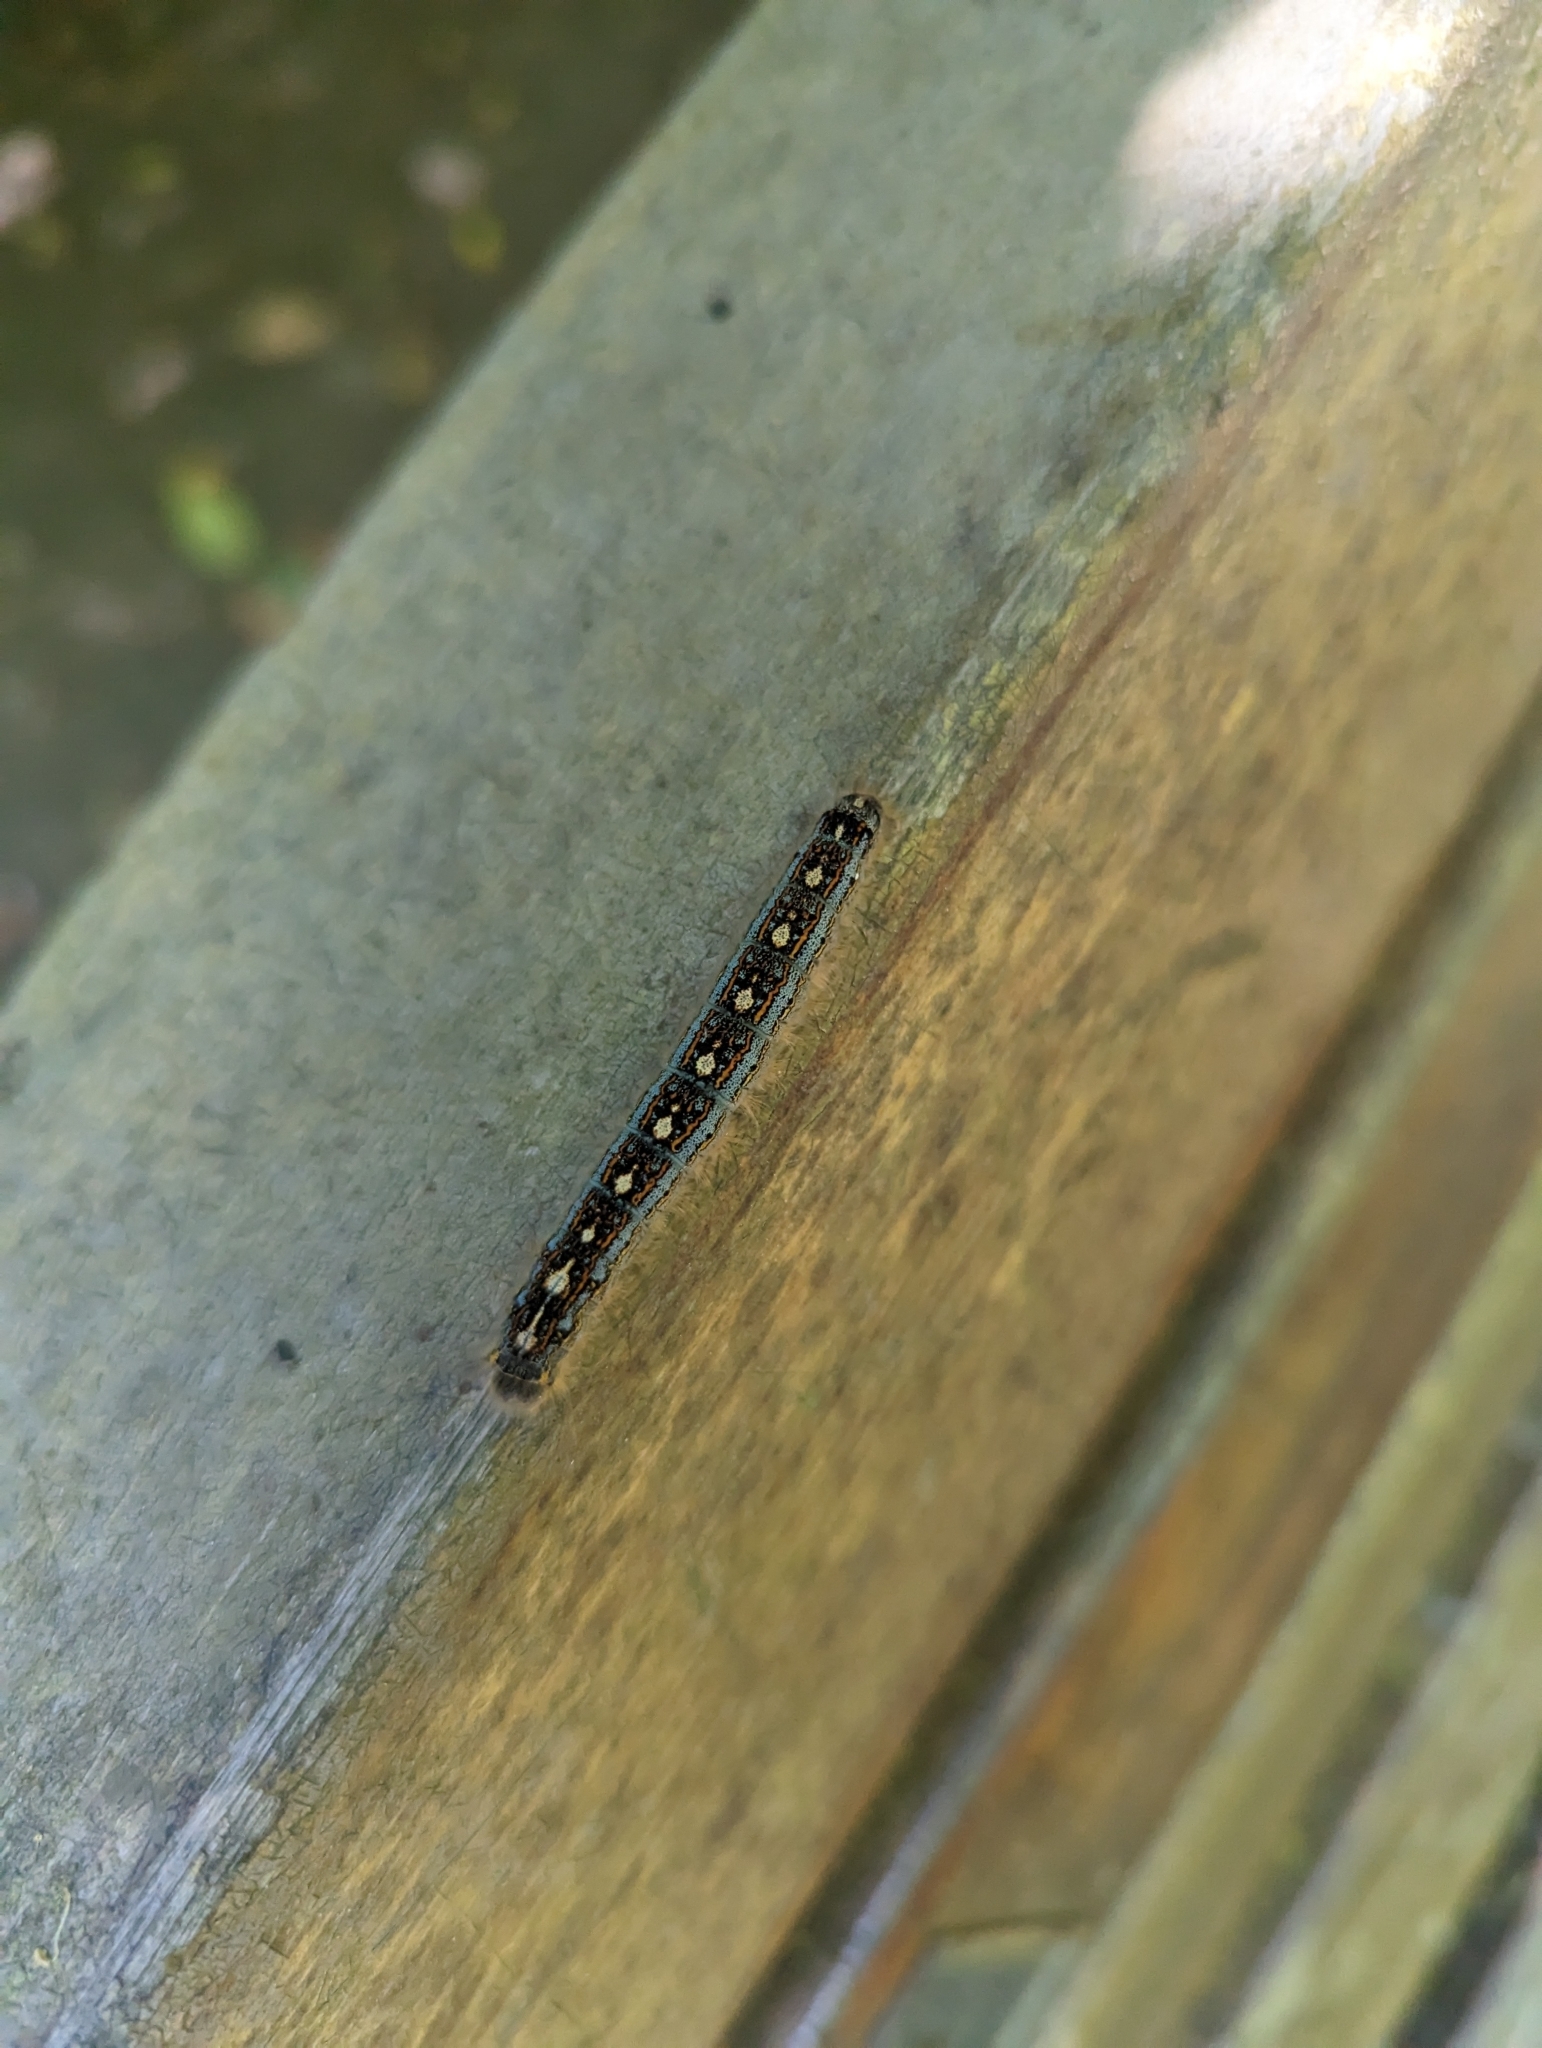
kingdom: Animalia
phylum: Arthropoda
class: Insecta
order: Lepidoptera
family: Lasiocampidae
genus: Malacosoma
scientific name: Malacosoma disstria
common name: Forest tent caterpillar
